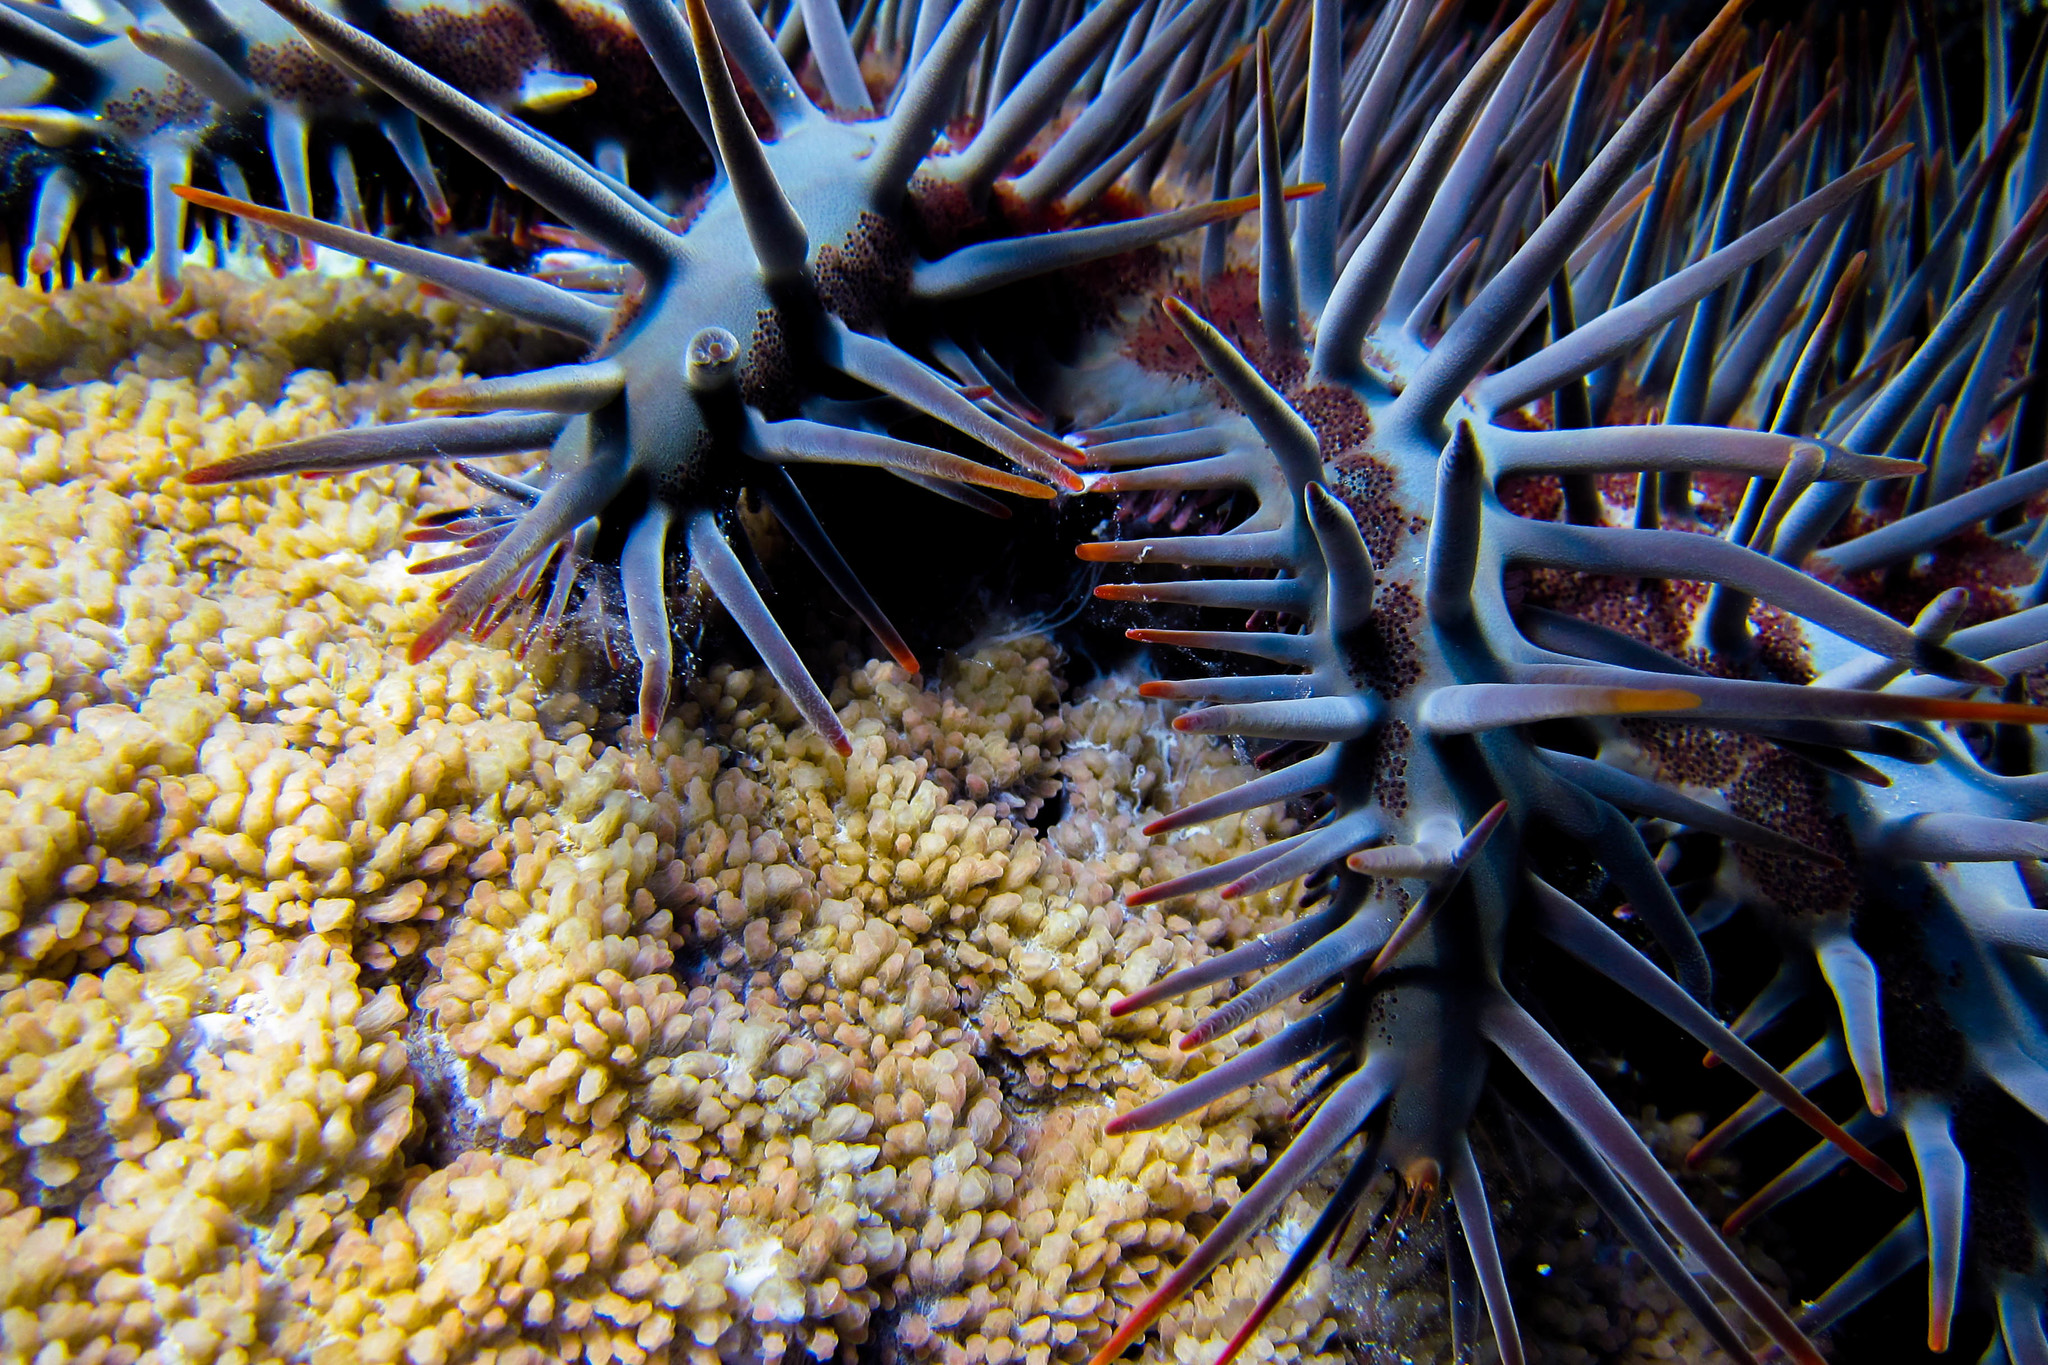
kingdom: Animalia
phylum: Echinodermata
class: Asteroidea
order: Valvatida
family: Acanthasteridae
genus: Acanthaster
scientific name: Acanthaster planci
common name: Crown-of-thorns
